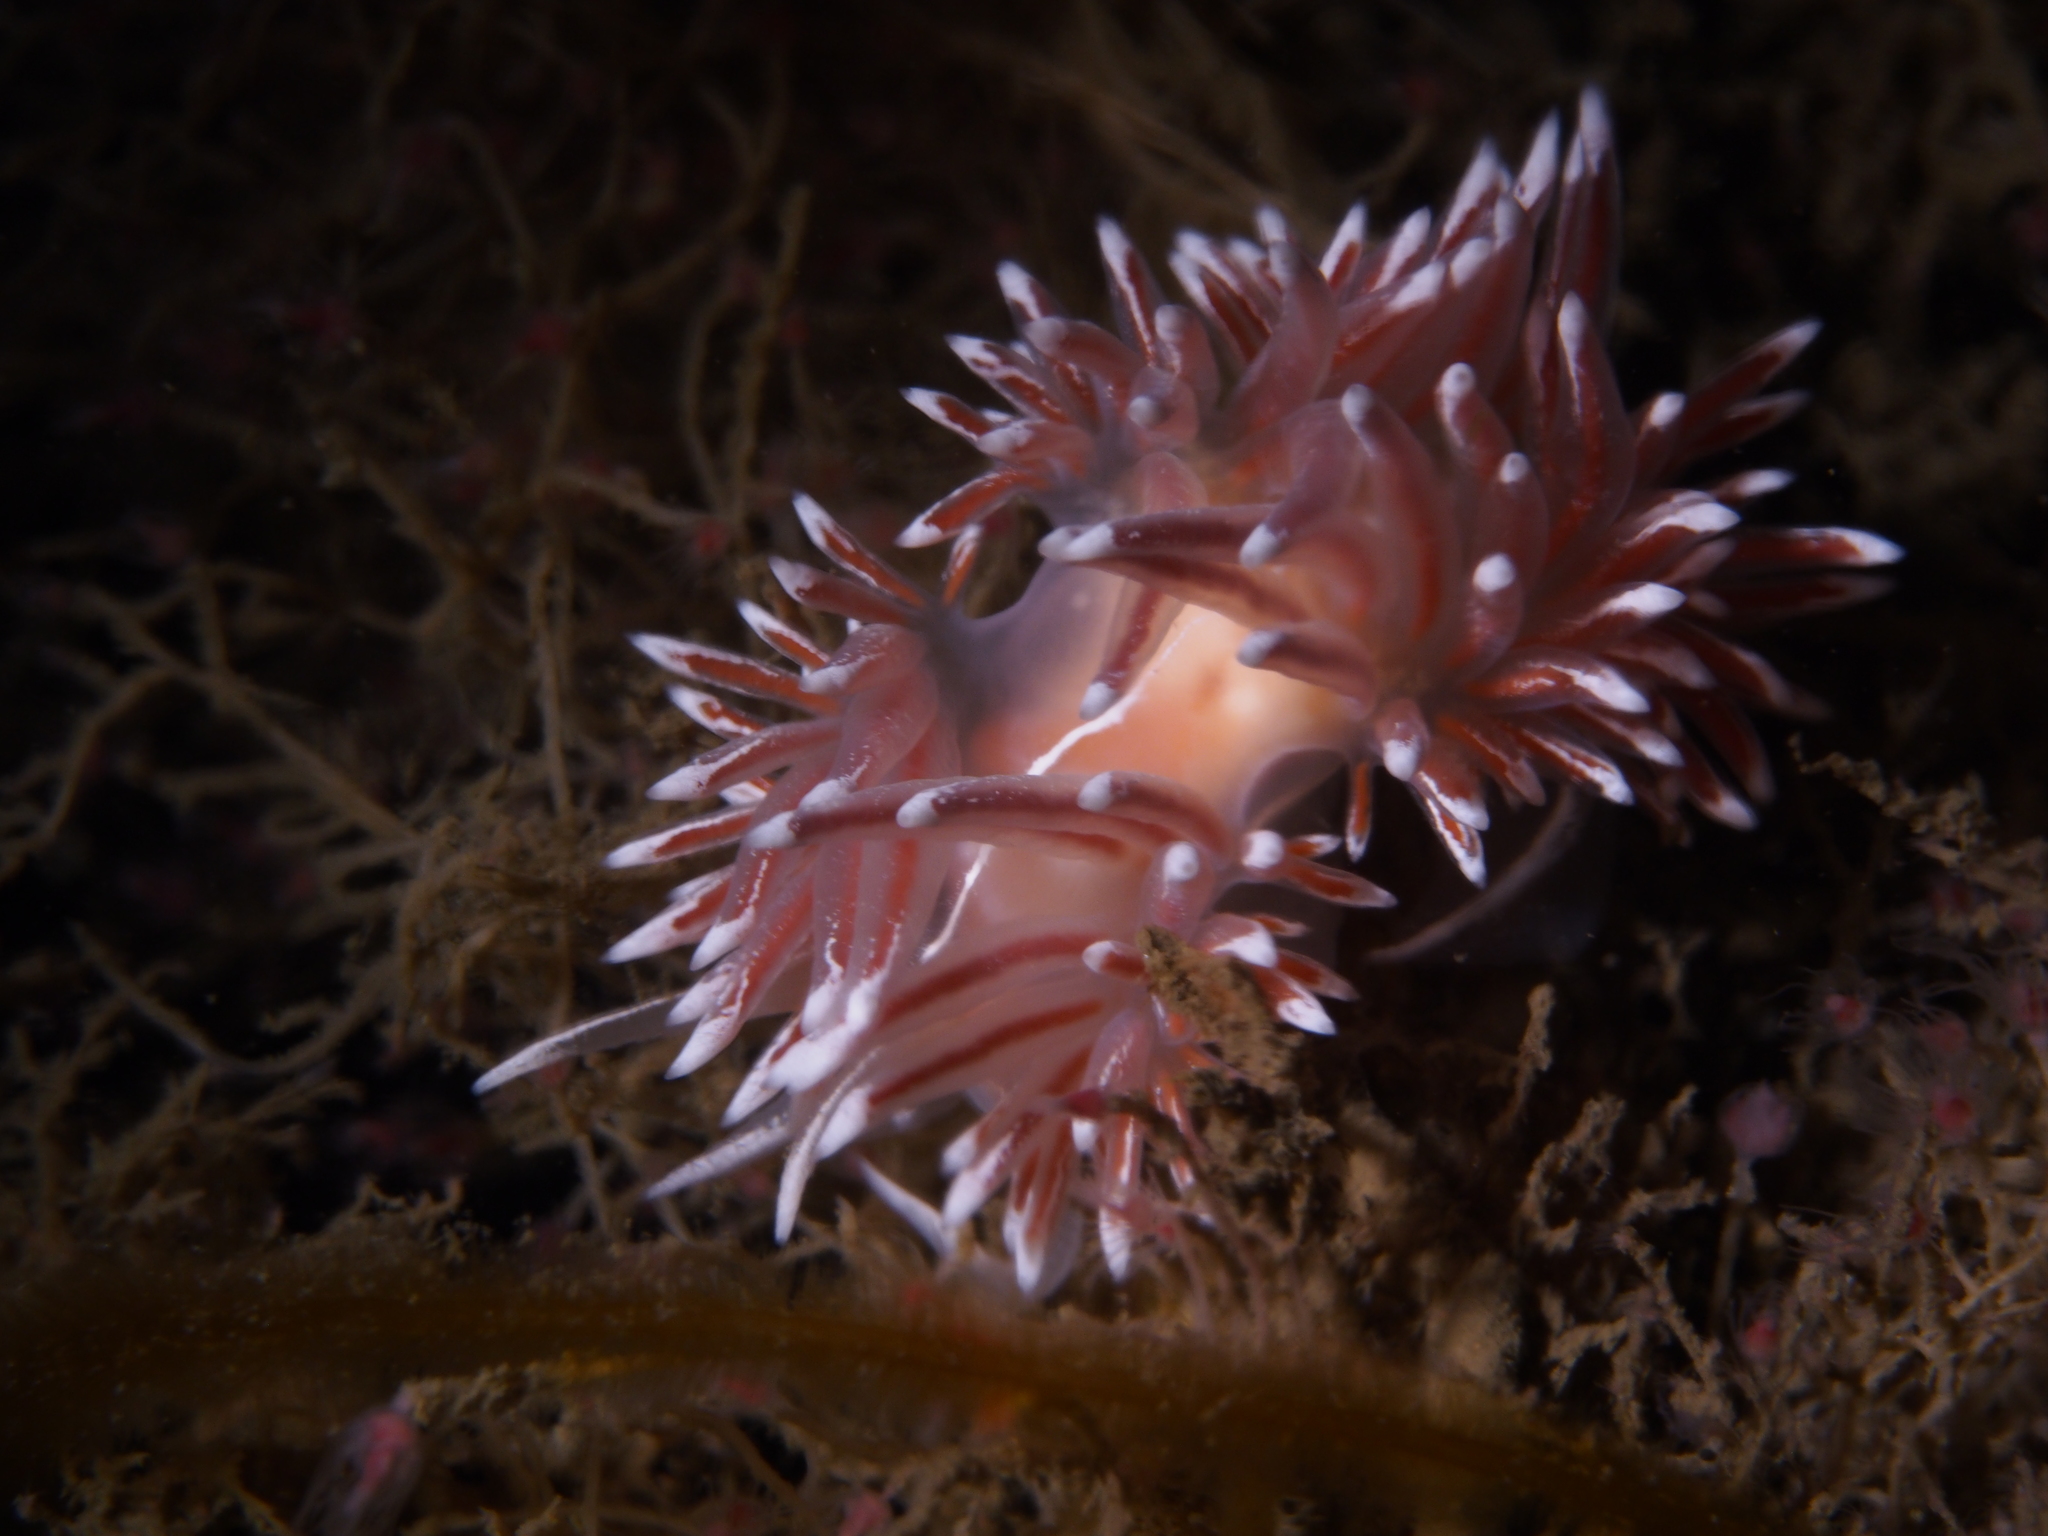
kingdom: Animalia
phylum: Mollusca
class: Gastropoda
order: Nudibranchia
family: Coryphellidae
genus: Coryphella
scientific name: Coryphella lineata
